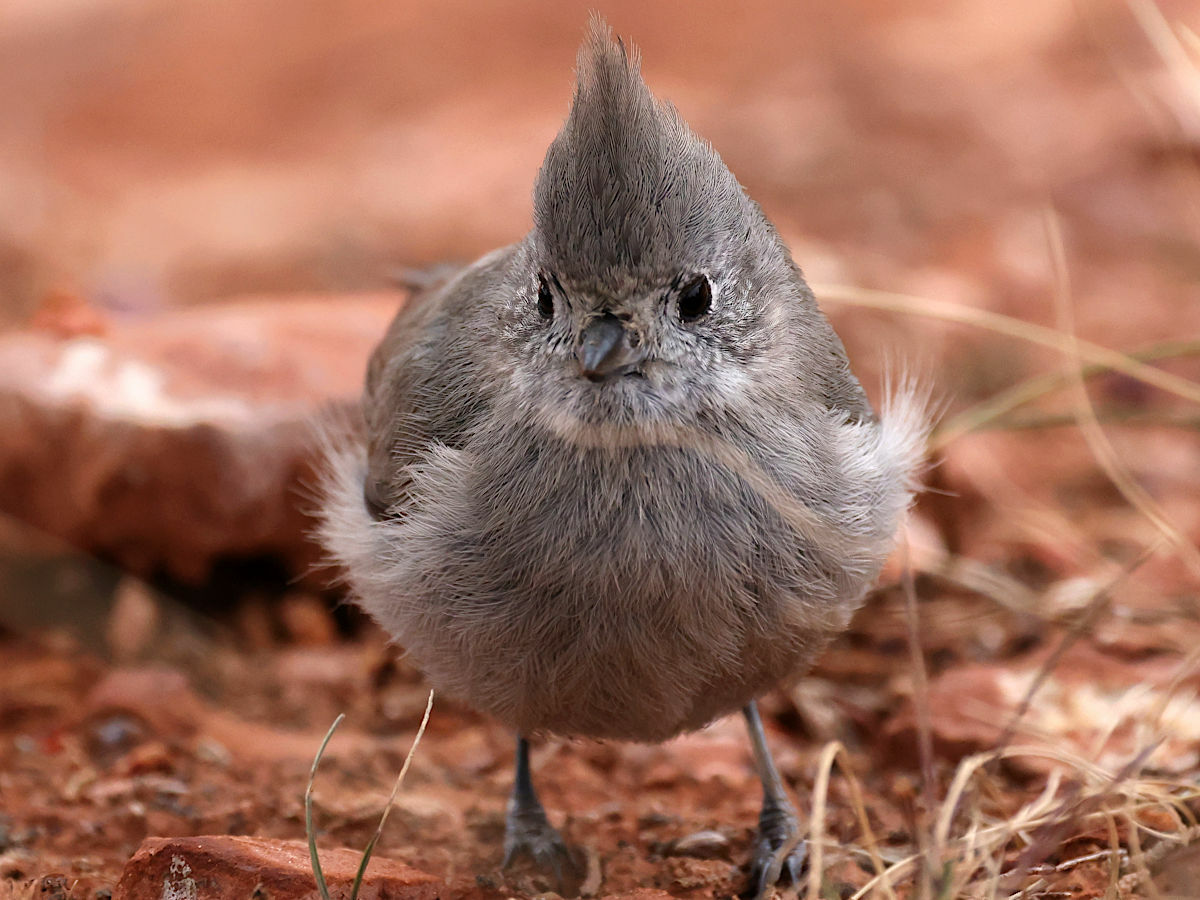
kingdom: Animalia
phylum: Chordata
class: Aves
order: Passeriformes
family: Paridae
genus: Baeolophus
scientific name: Baeolophus ridgwayi
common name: Juniper titmouse
